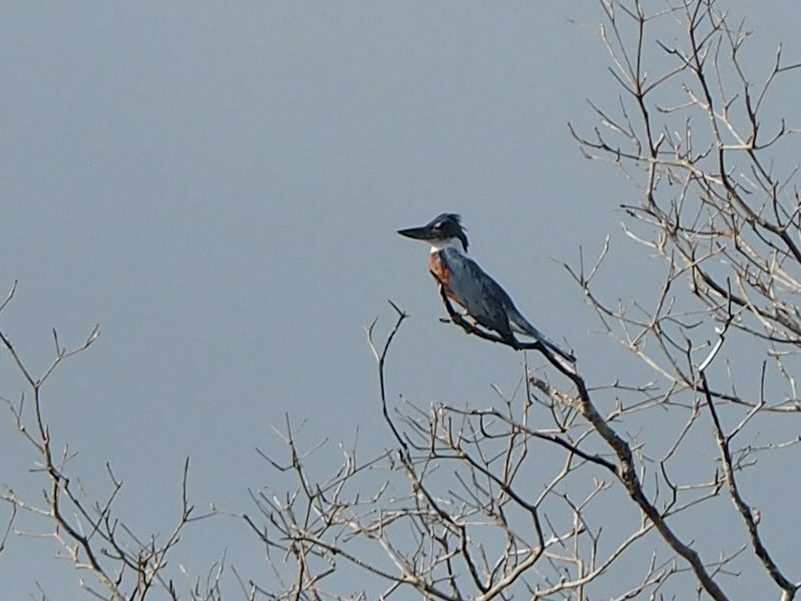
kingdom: Animalia
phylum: Chordata
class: Aves
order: Coraciiformes
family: Alcedinidae
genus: Megaceryle
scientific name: Megaceryle torquata
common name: Ringed kingfisher
